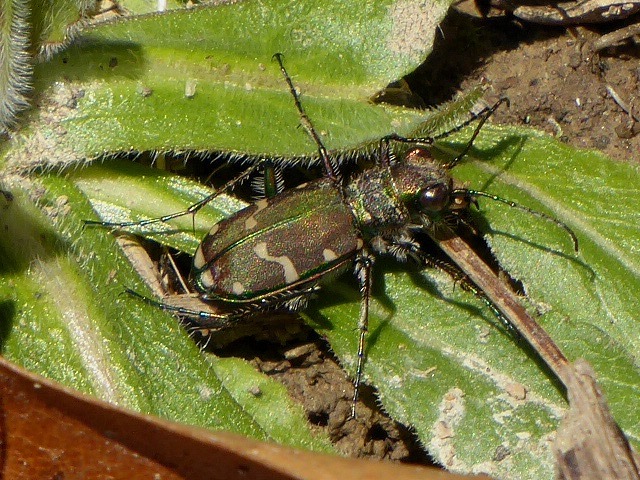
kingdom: Animalia
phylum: Arthropoda
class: Insecta
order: Coleoptera
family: Carabidae
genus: Cicindela
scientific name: Cicindela limbalis
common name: Common claybank tiger beetle
